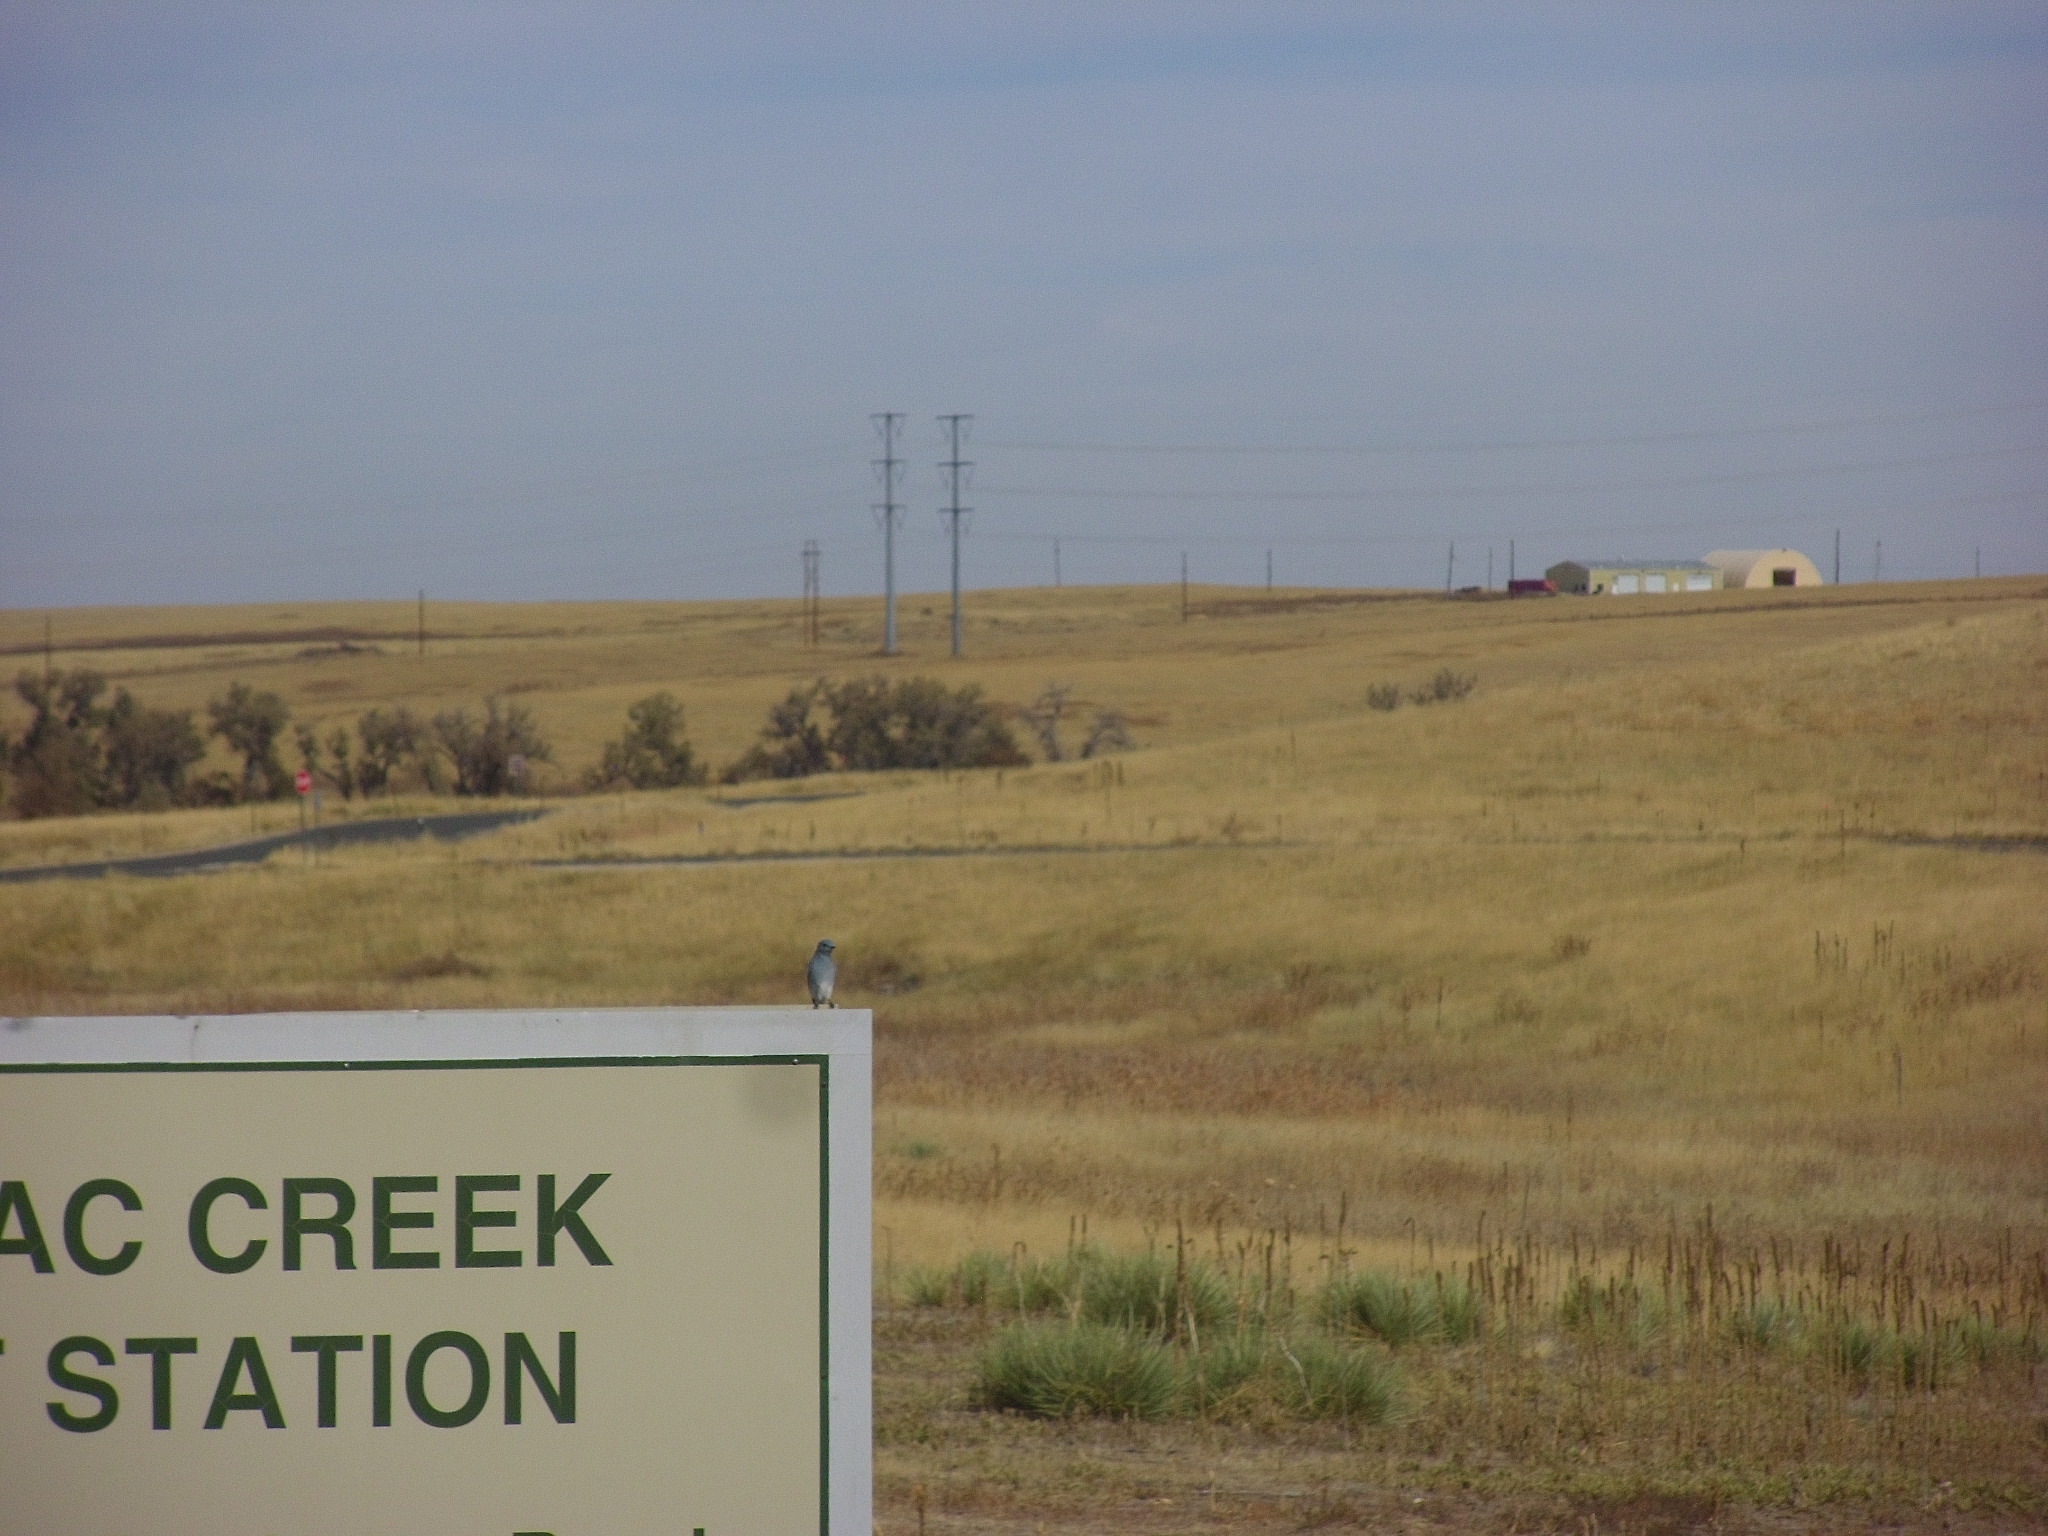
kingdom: Animalia
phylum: Chordata
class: Aves
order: Passeriformes
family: Turdidae
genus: Sialia
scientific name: Sialia currucoides
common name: Mountain bluebird
